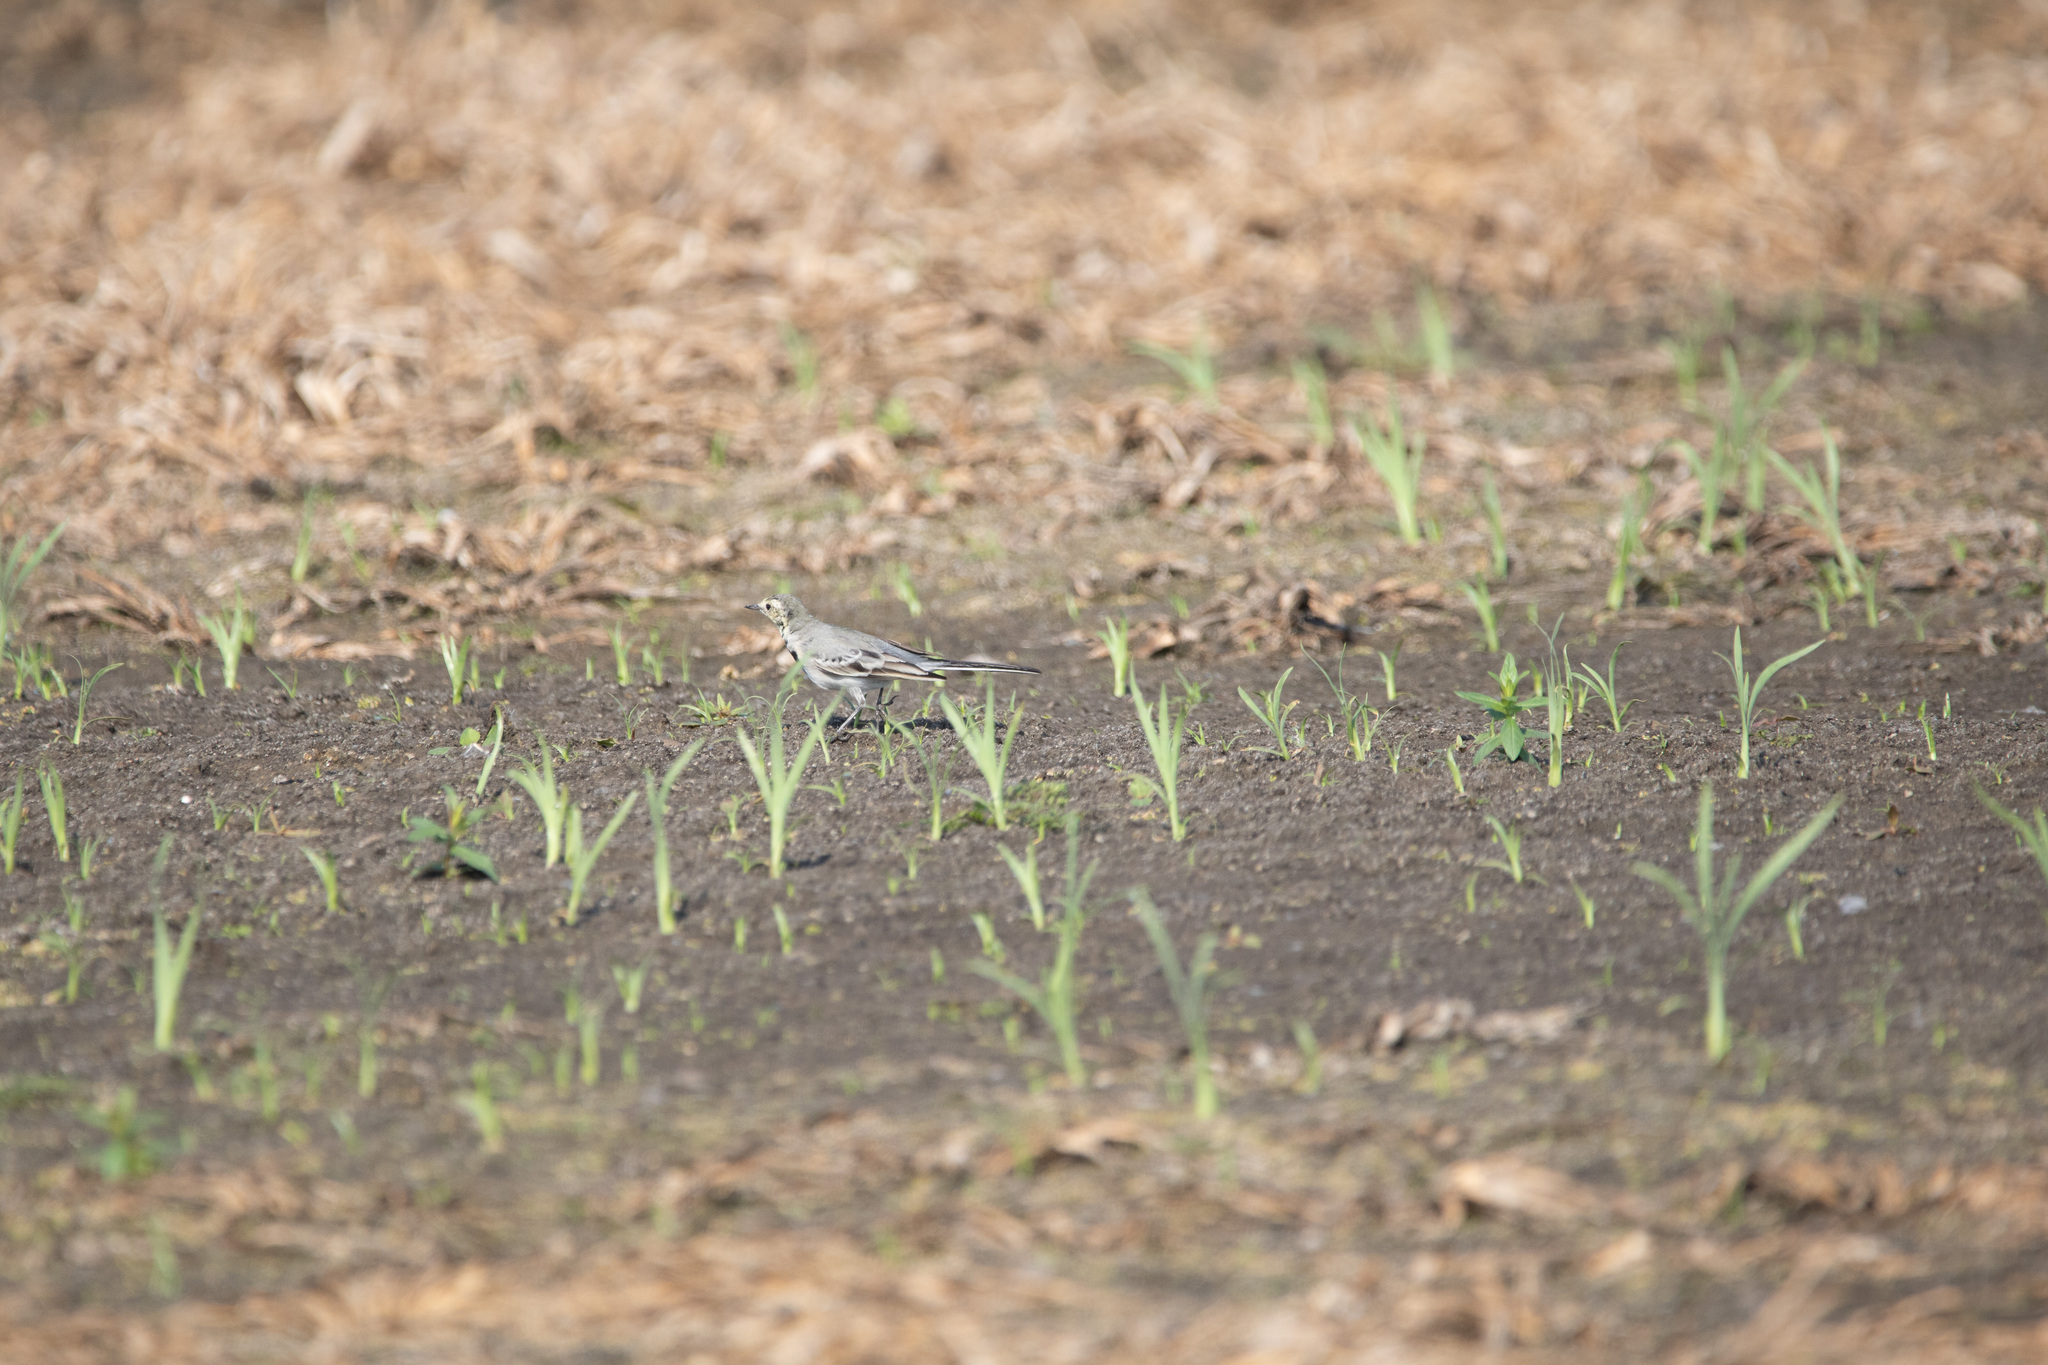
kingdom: Animalia
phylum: Chordata
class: Aves
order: Passeriformes
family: Motacillidae
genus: Motacilla
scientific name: Motacilla alba
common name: White wagtail
